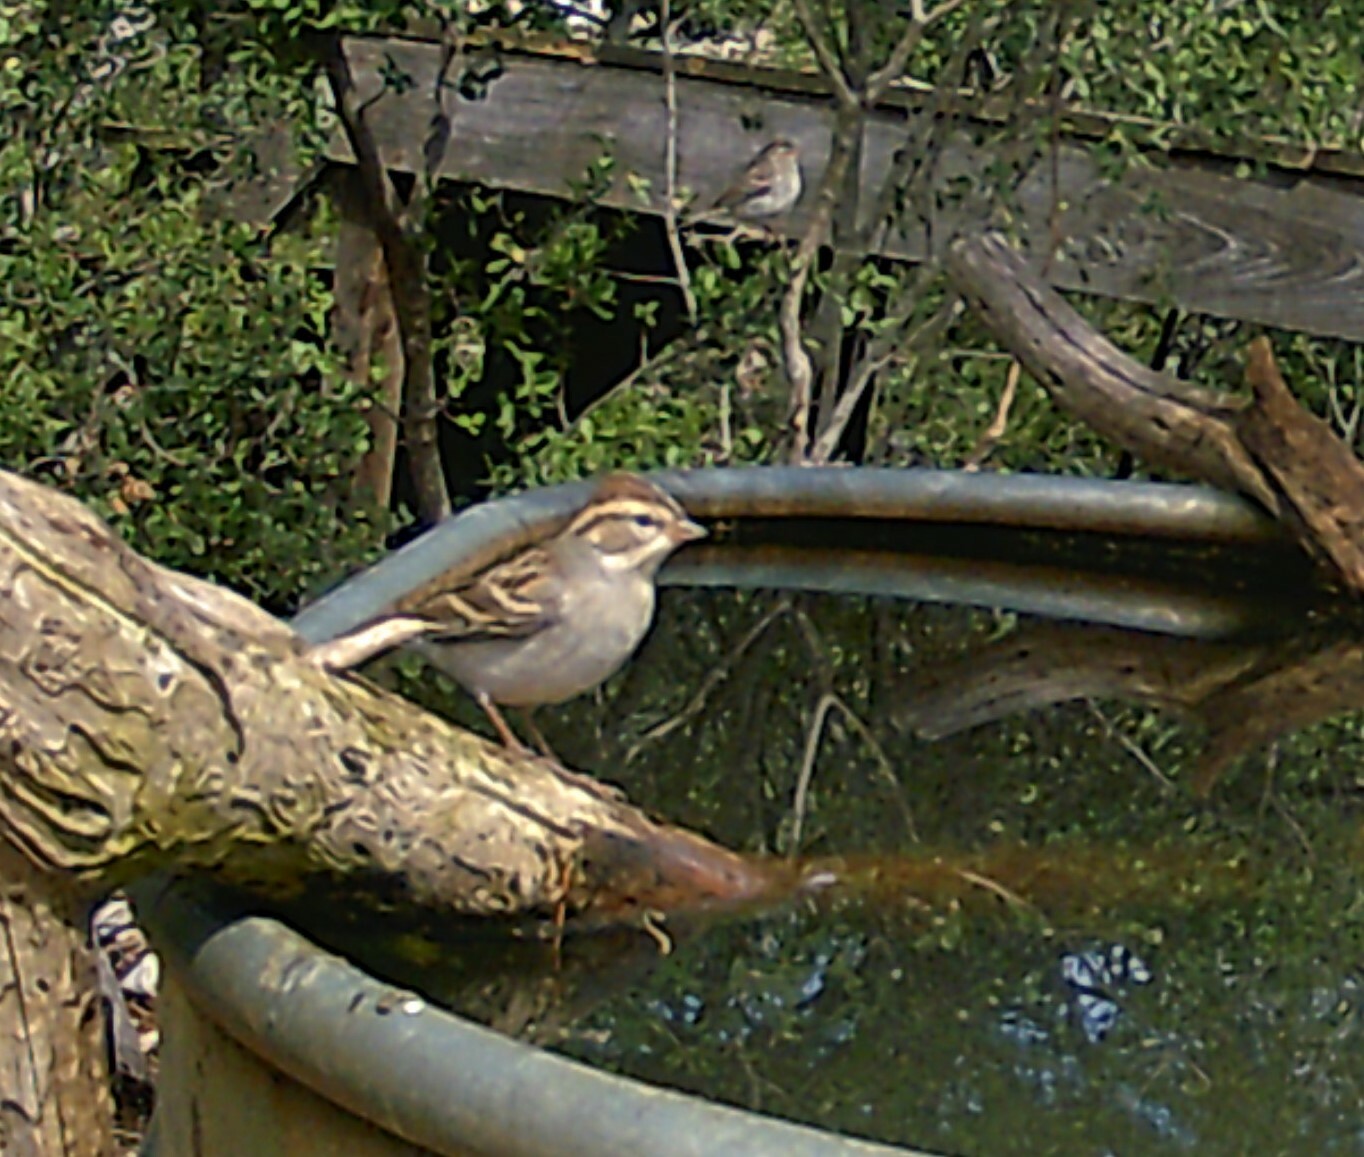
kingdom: Animalia
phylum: Chordata
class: Aves
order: Passeriformes
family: Passerellidae
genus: Spizella
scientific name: Spizella passerina
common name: Chipping sparrow
